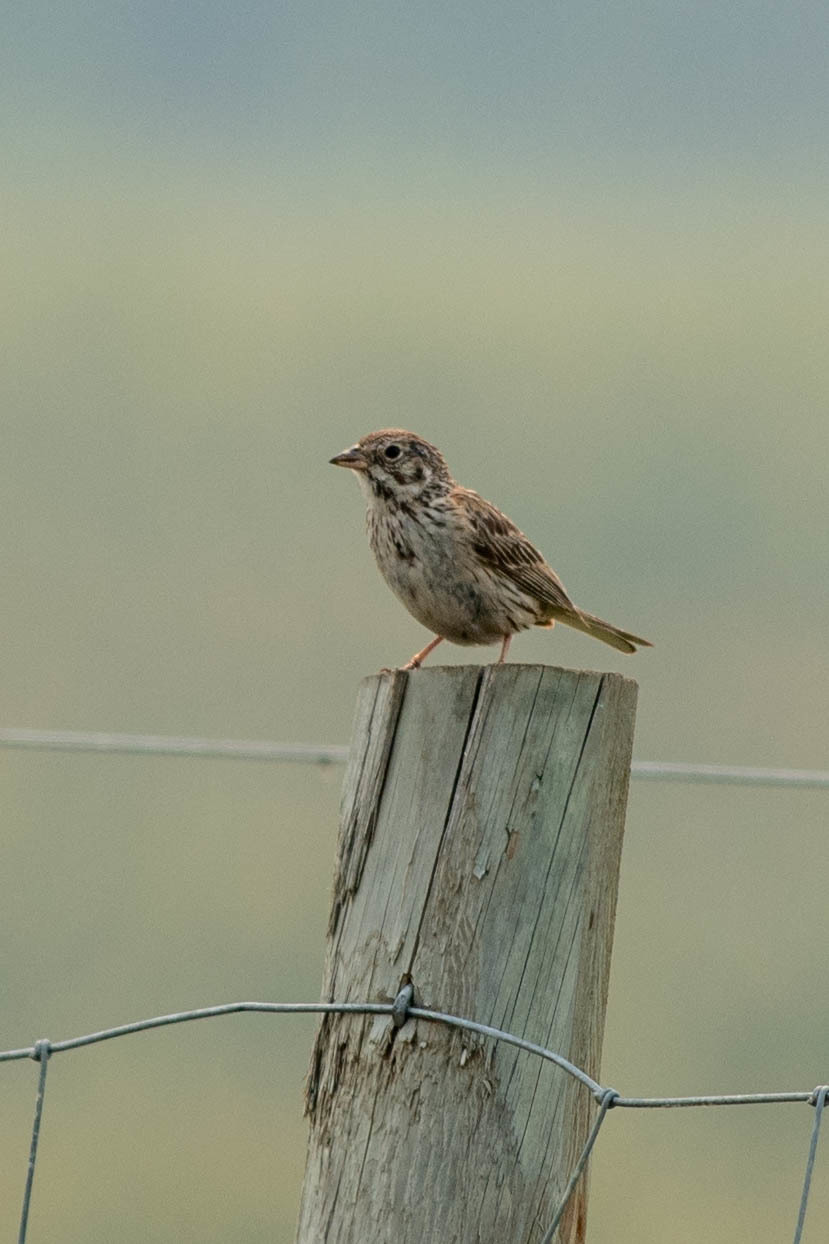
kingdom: Animalia
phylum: Chordata
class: Aves
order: Passeriformes
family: Passerellidae
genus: Pooecetes
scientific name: Pooecetes gramineus
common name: Vesper sparrow
